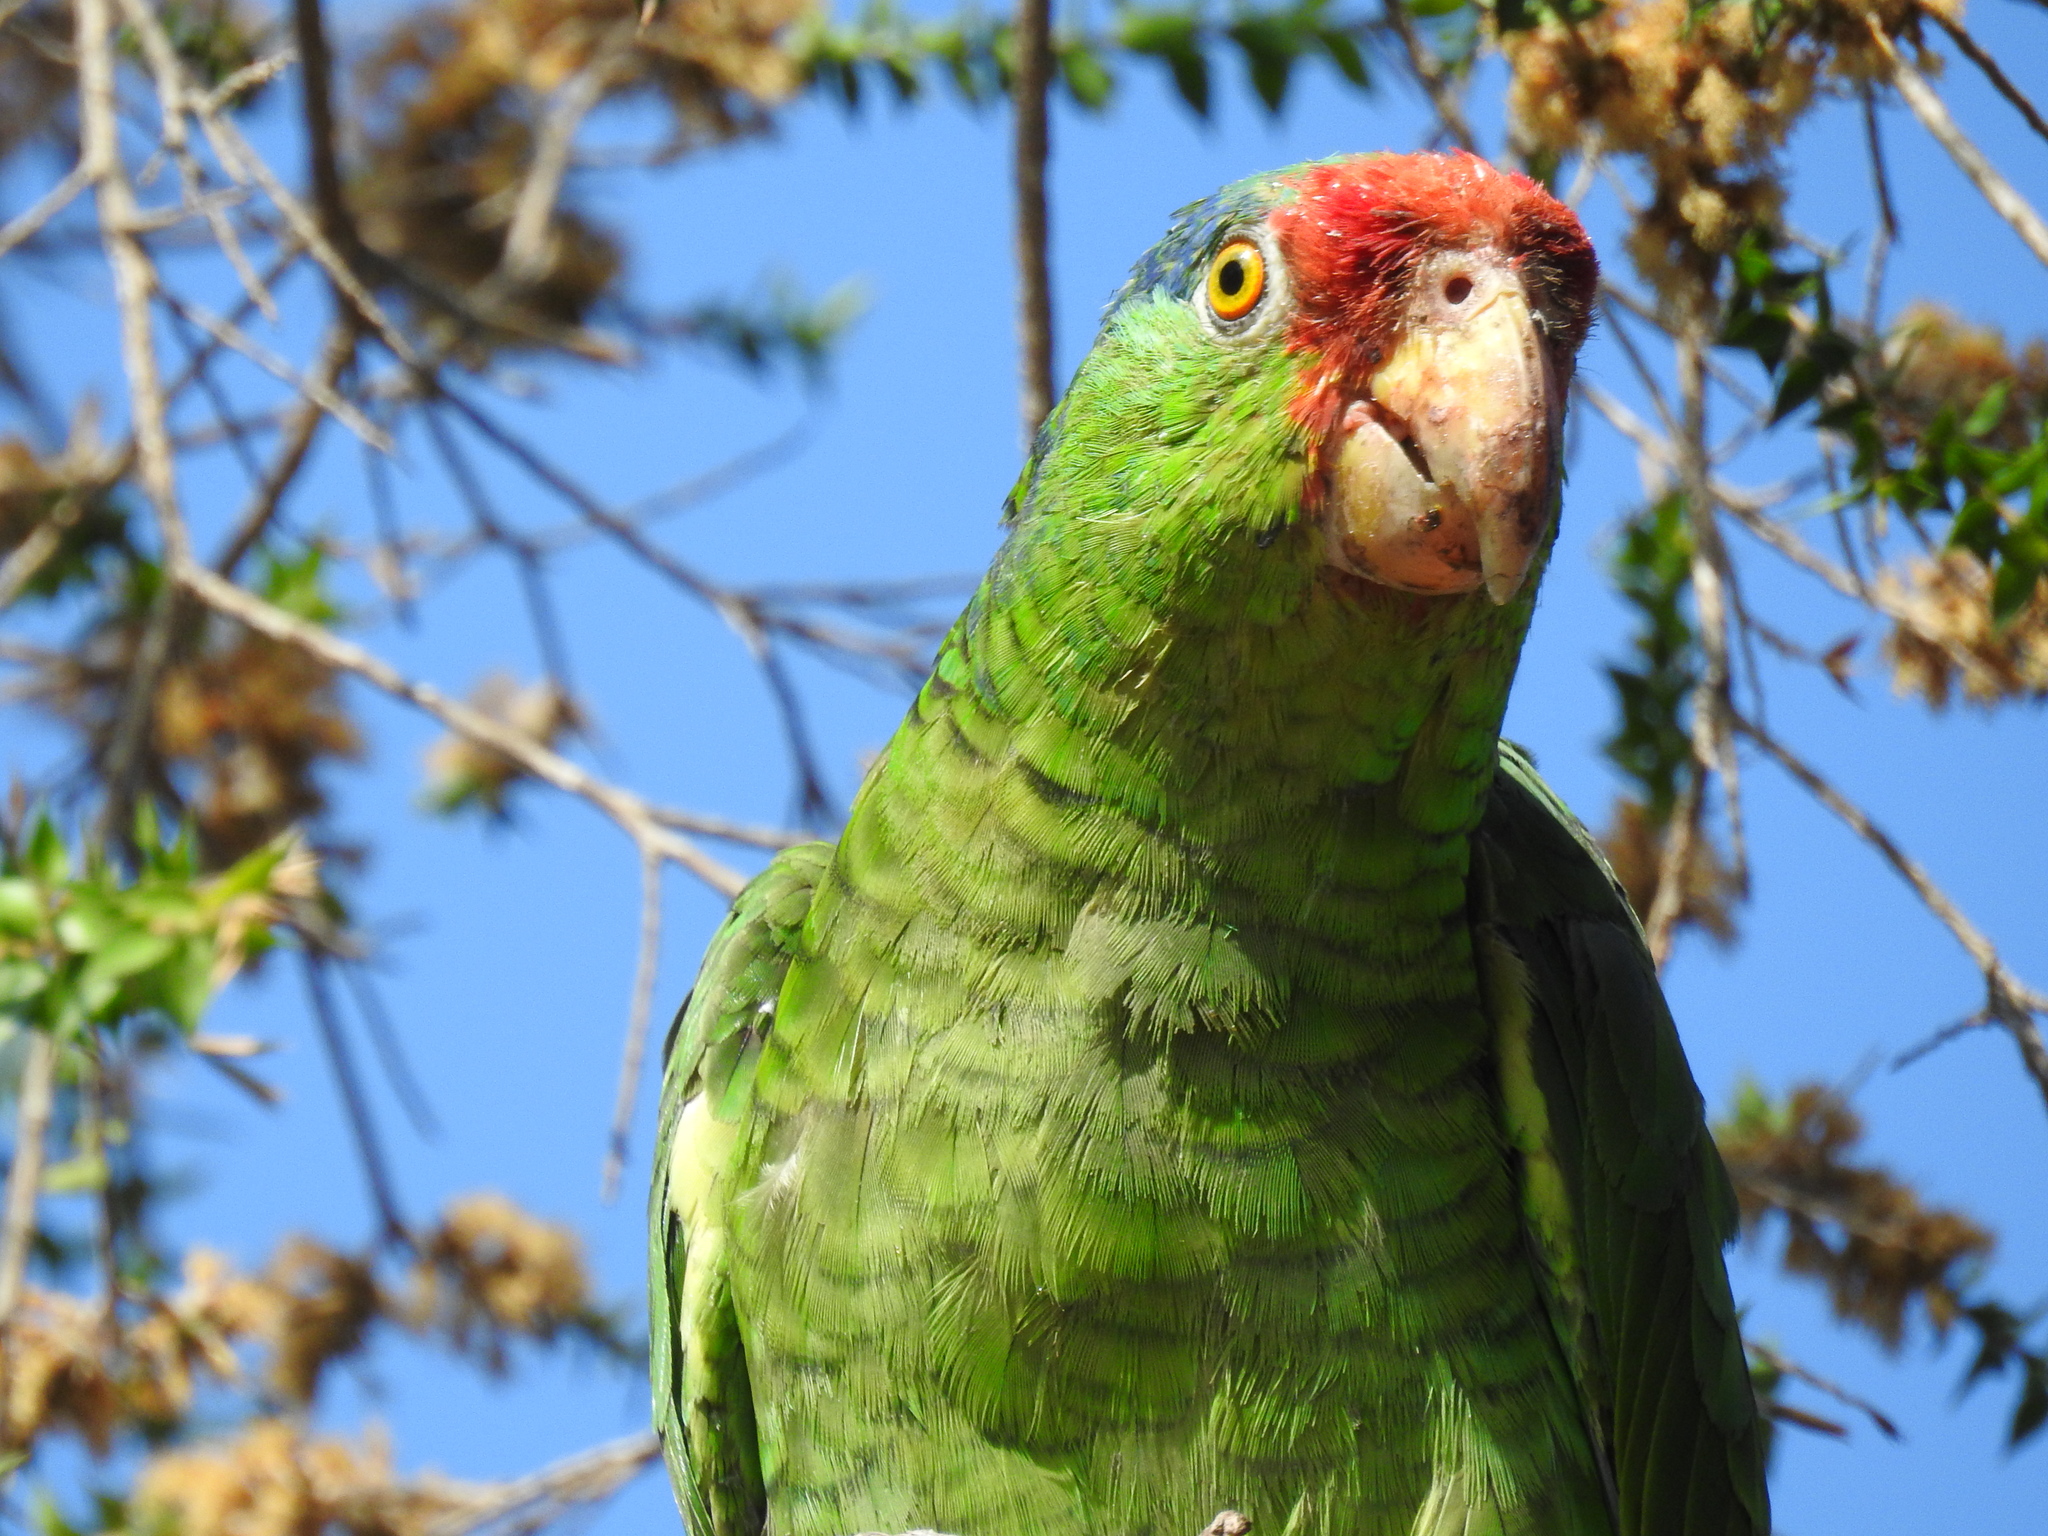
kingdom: Animalia
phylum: Chordata
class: Aves
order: Psittaciformes
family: Psittacidae
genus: Amazona
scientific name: Amazona viridigenalis
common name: Red-crowned amazon
